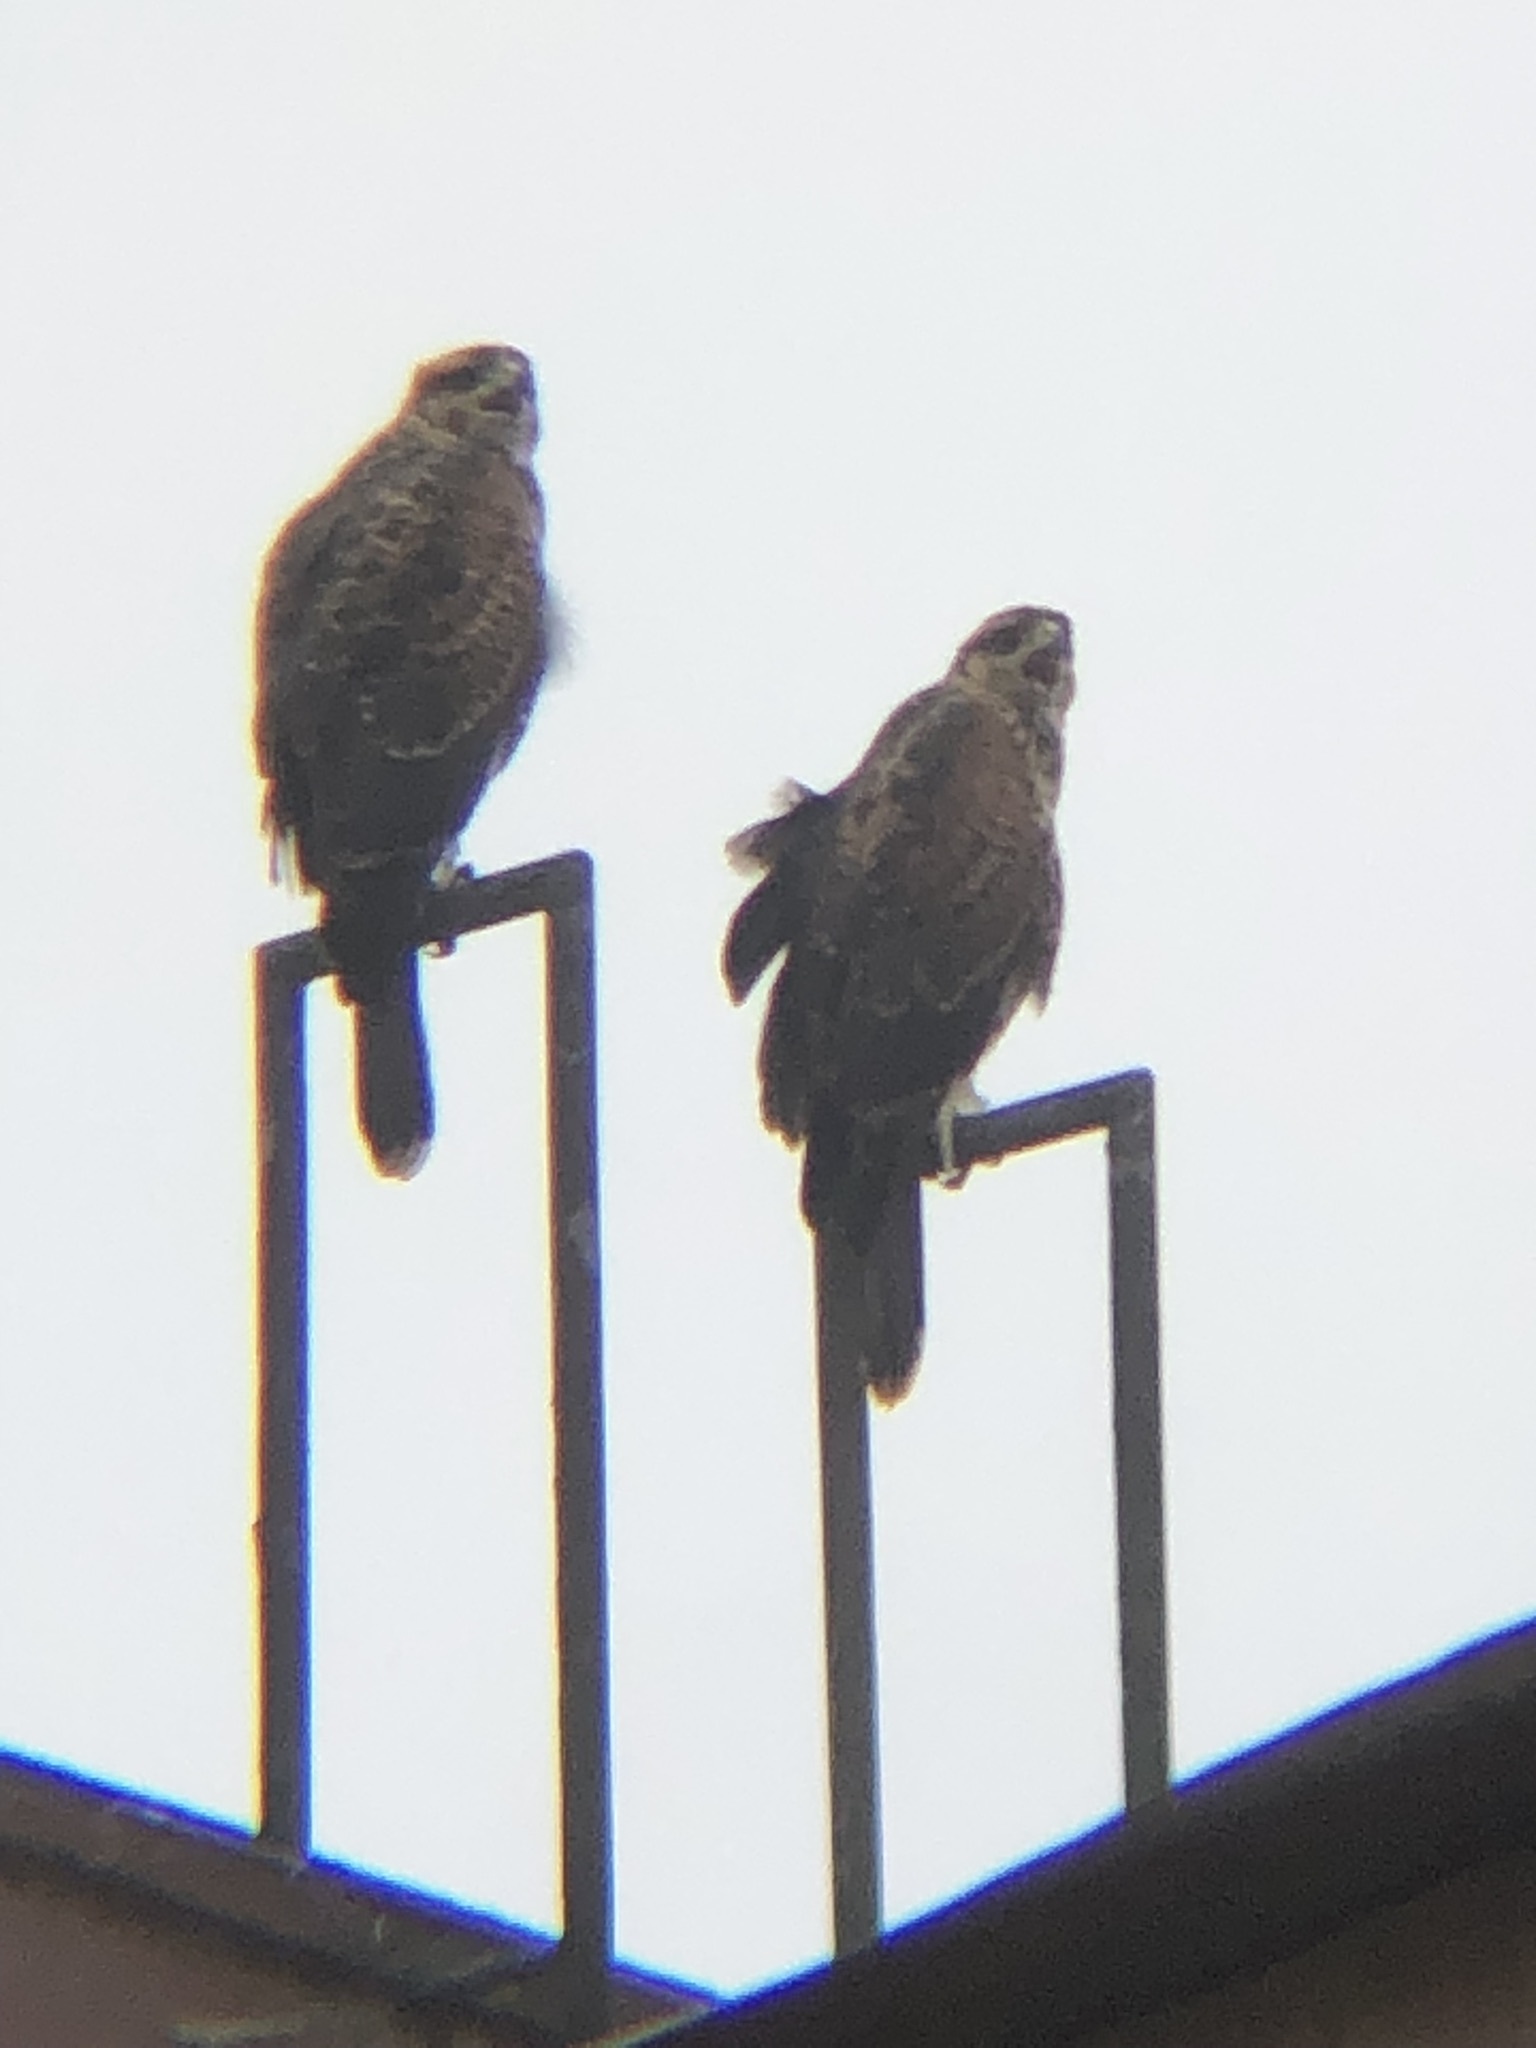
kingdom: Animalia
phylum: Chordata
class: Aves
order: Accipitriformes
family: Accipitridae
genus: Parabuteo
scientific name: Parabuteo unicinctus
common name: Harris's hawk
